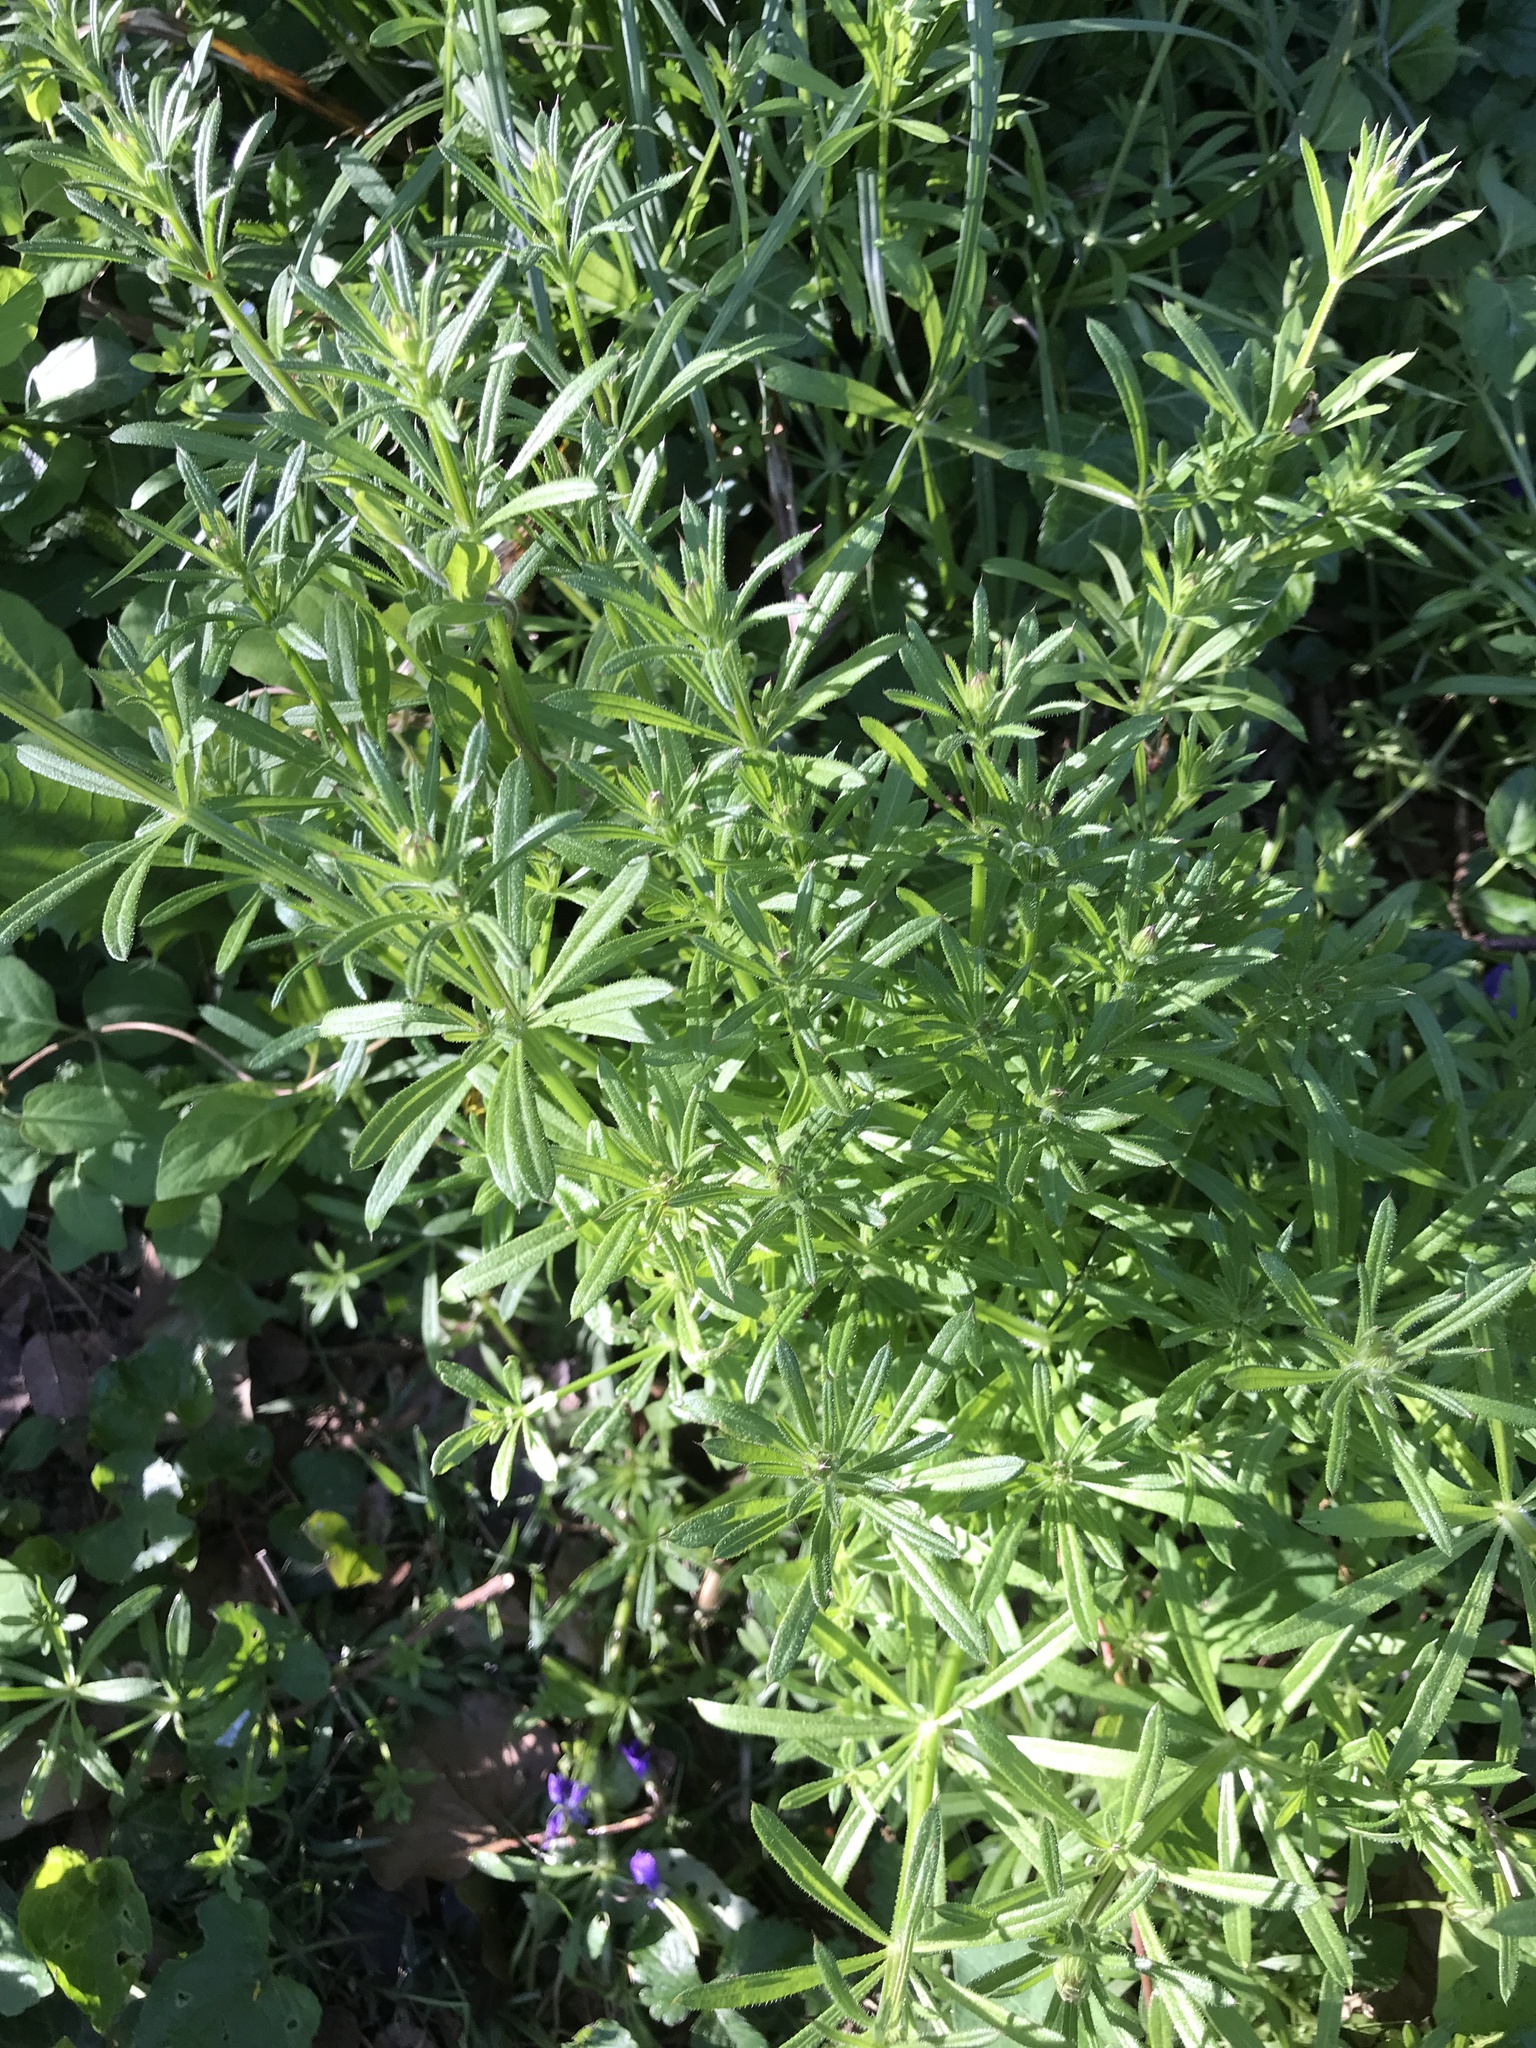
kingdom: Plantae
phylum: Tracheophyta
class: Magnoliopsida
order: Gentianales
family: Rubiaceae
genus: Galium
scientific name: Galium aparine
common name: Cleavers
